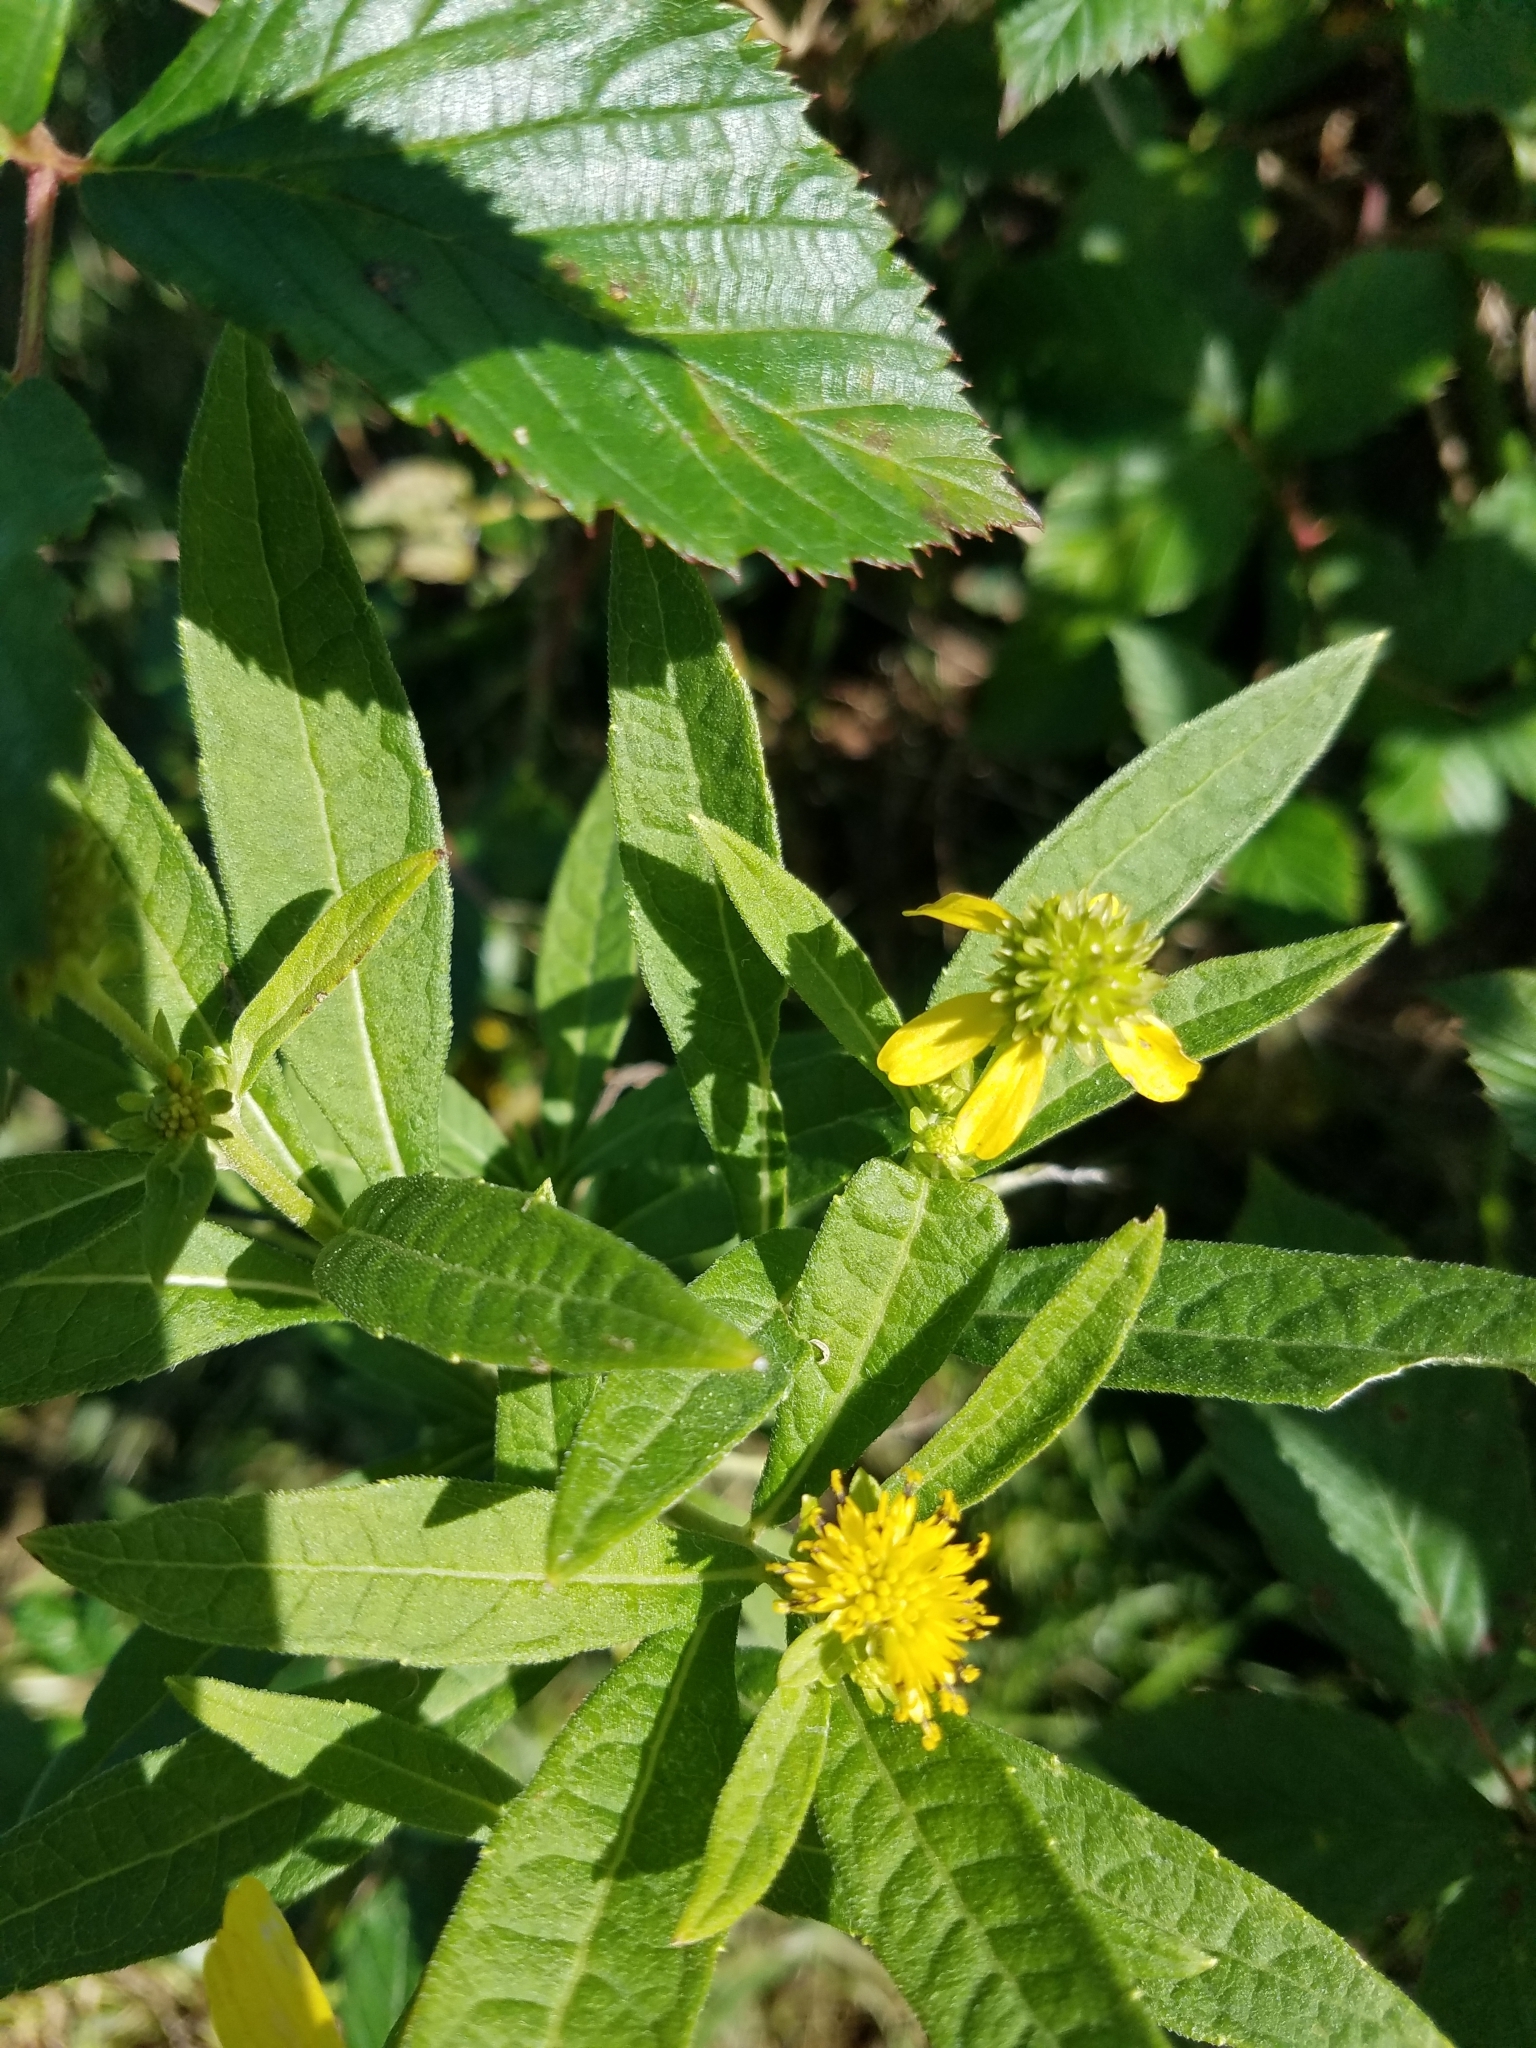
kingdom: Plantae
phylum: Tracheophyta
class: Magnoliopsida
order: Asterales
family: Asteraceae
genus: Verbesina
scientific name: Verbesina alternifolia
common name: Wingstem
